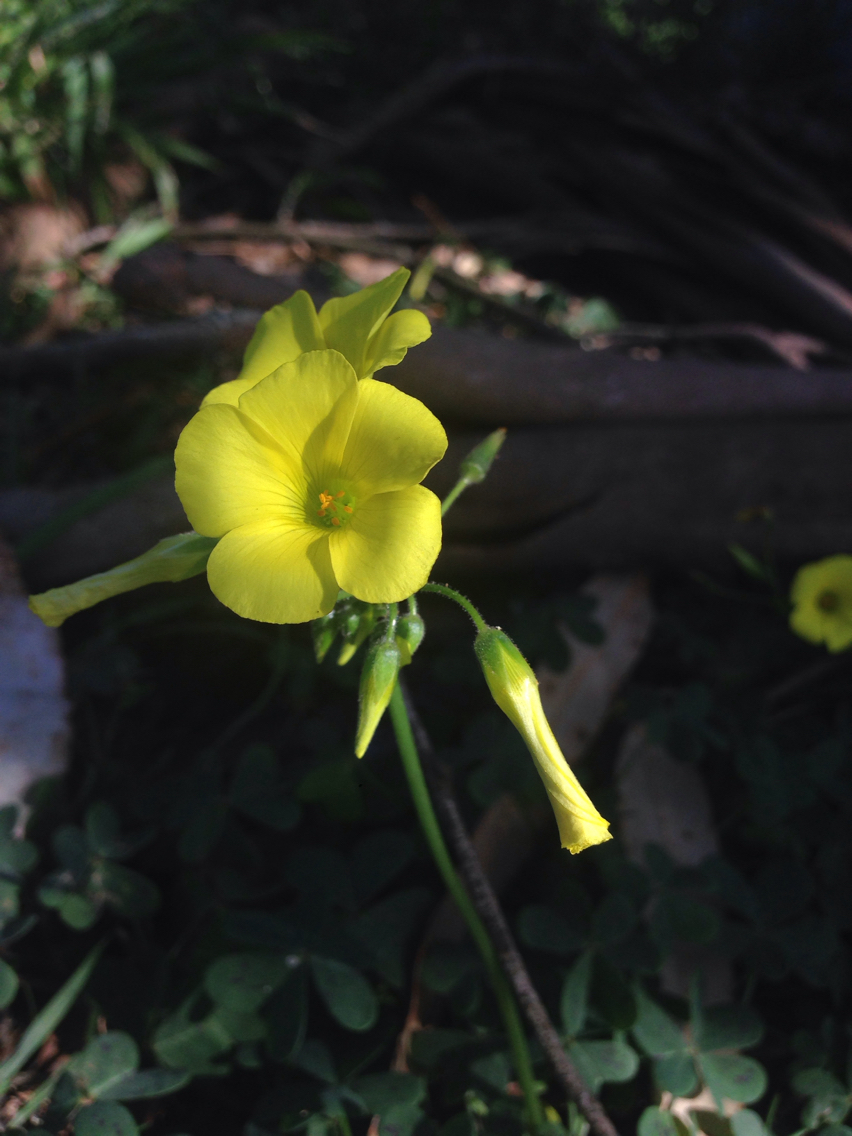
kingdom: Plantae
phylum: Tracheophyta
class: Magnoliopsida
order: Oxalidales
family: Oxalidaceae
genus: Oxalis
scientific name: Oxalis pes-caprae
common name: Bermuda-buttercup
